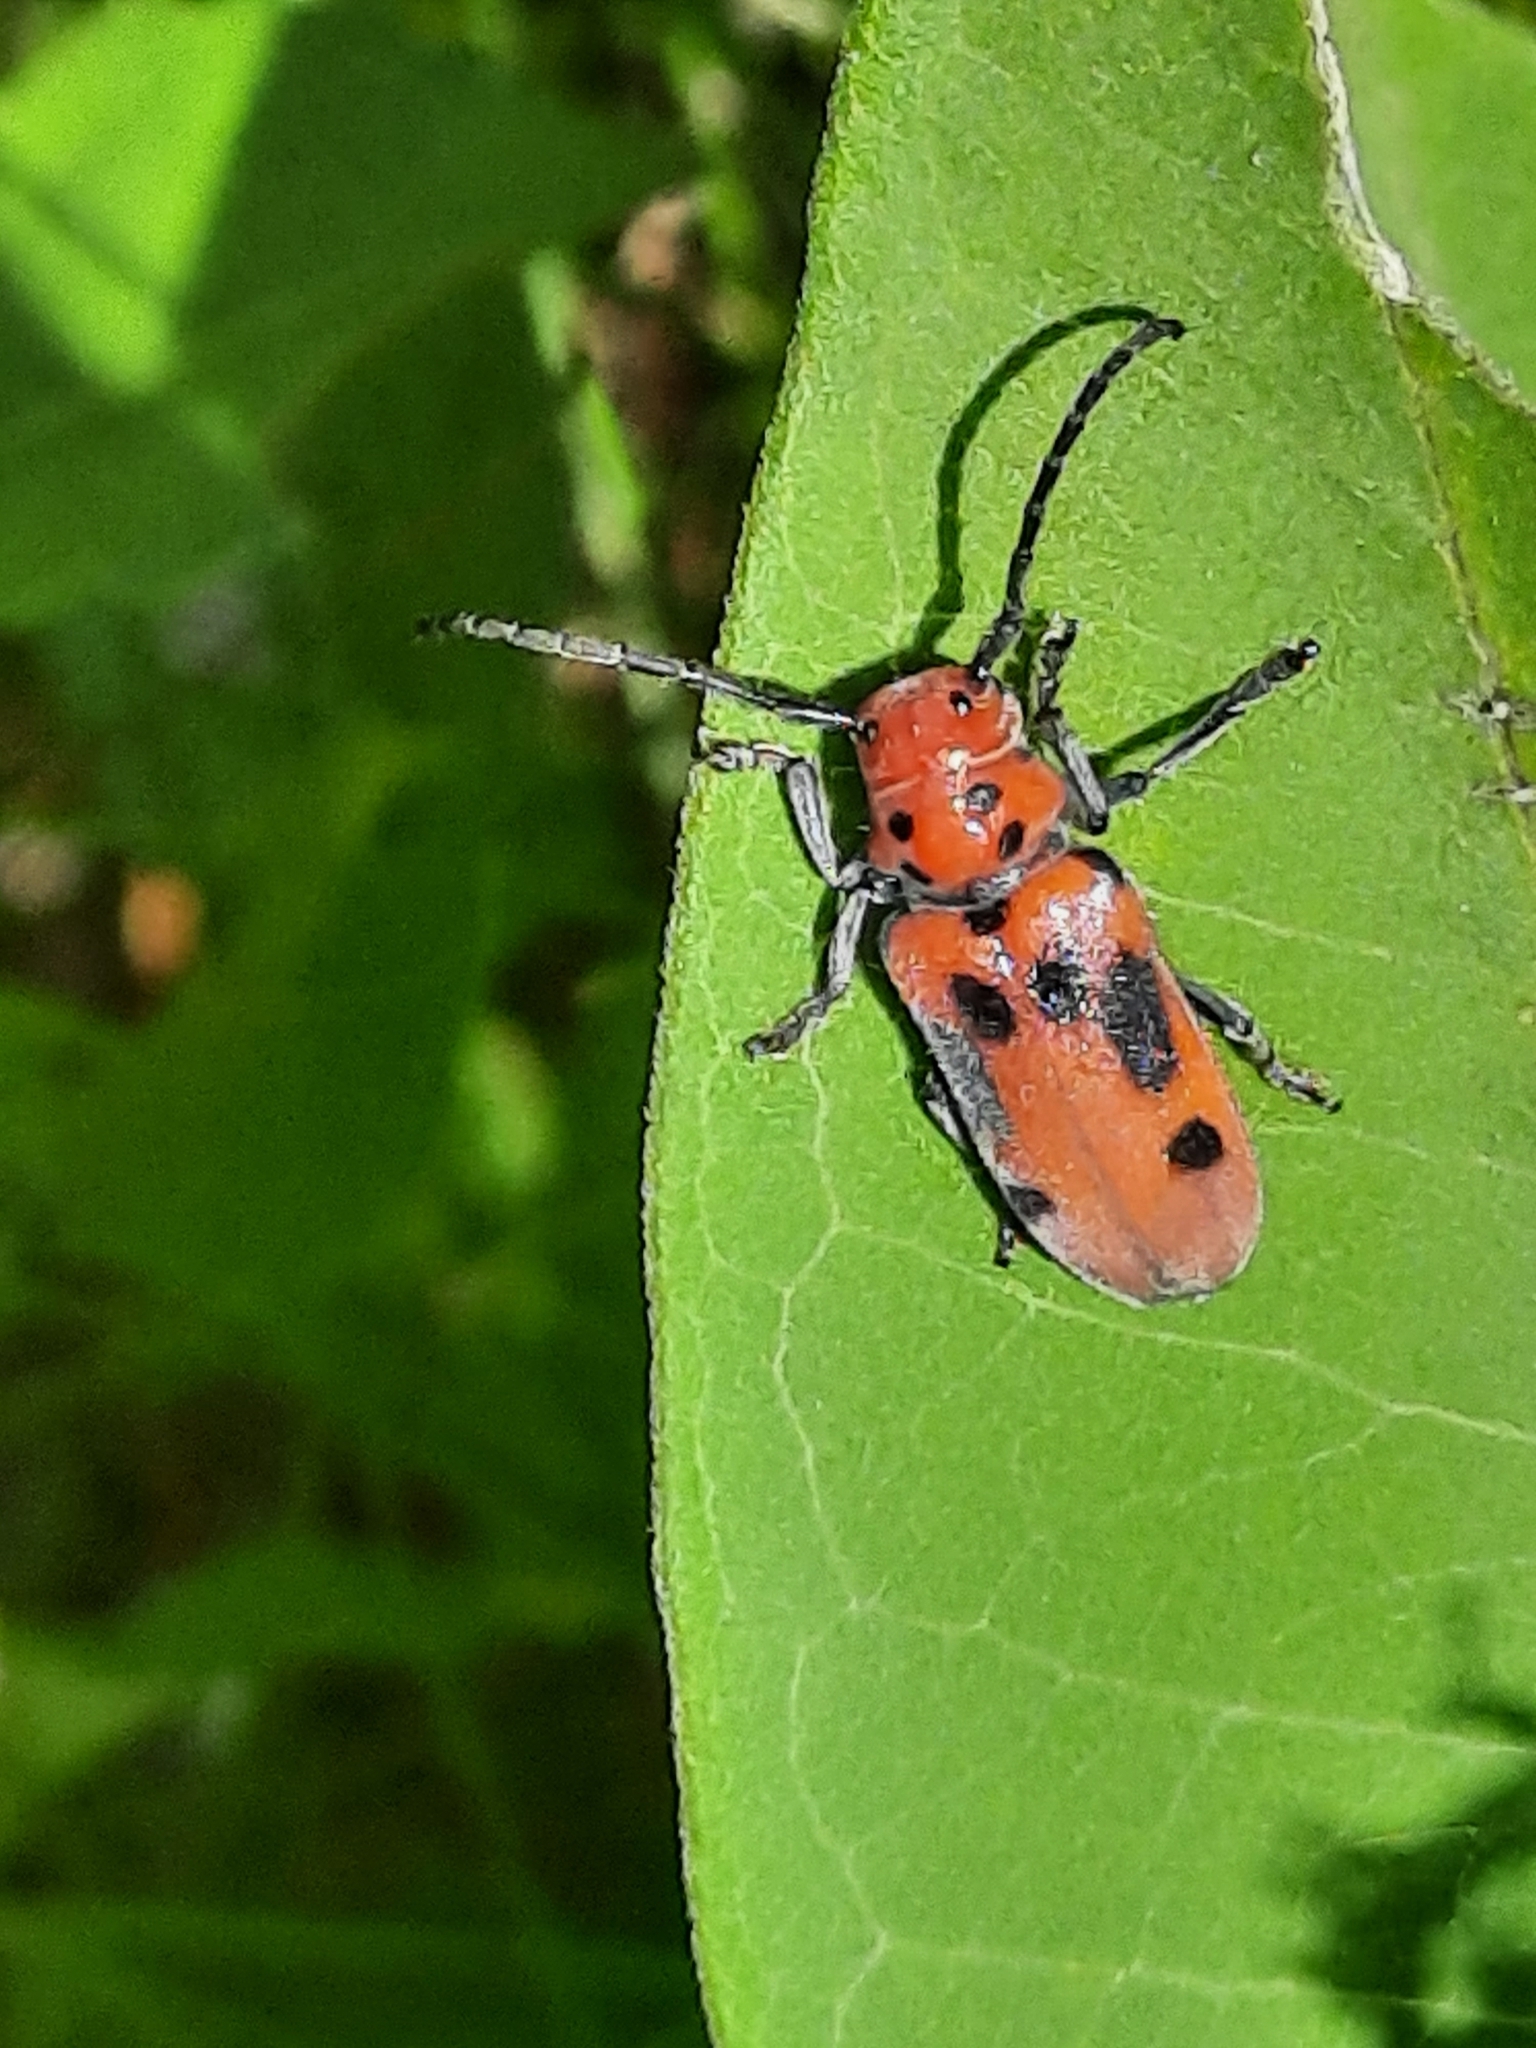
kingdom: Animalia
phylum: Arthropoda
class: Insecta
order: Coleoptera
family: Cerambycidae
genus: Tetraopes
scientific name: Tetraopes tetrophthalmus
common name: Red milkweed beetle
